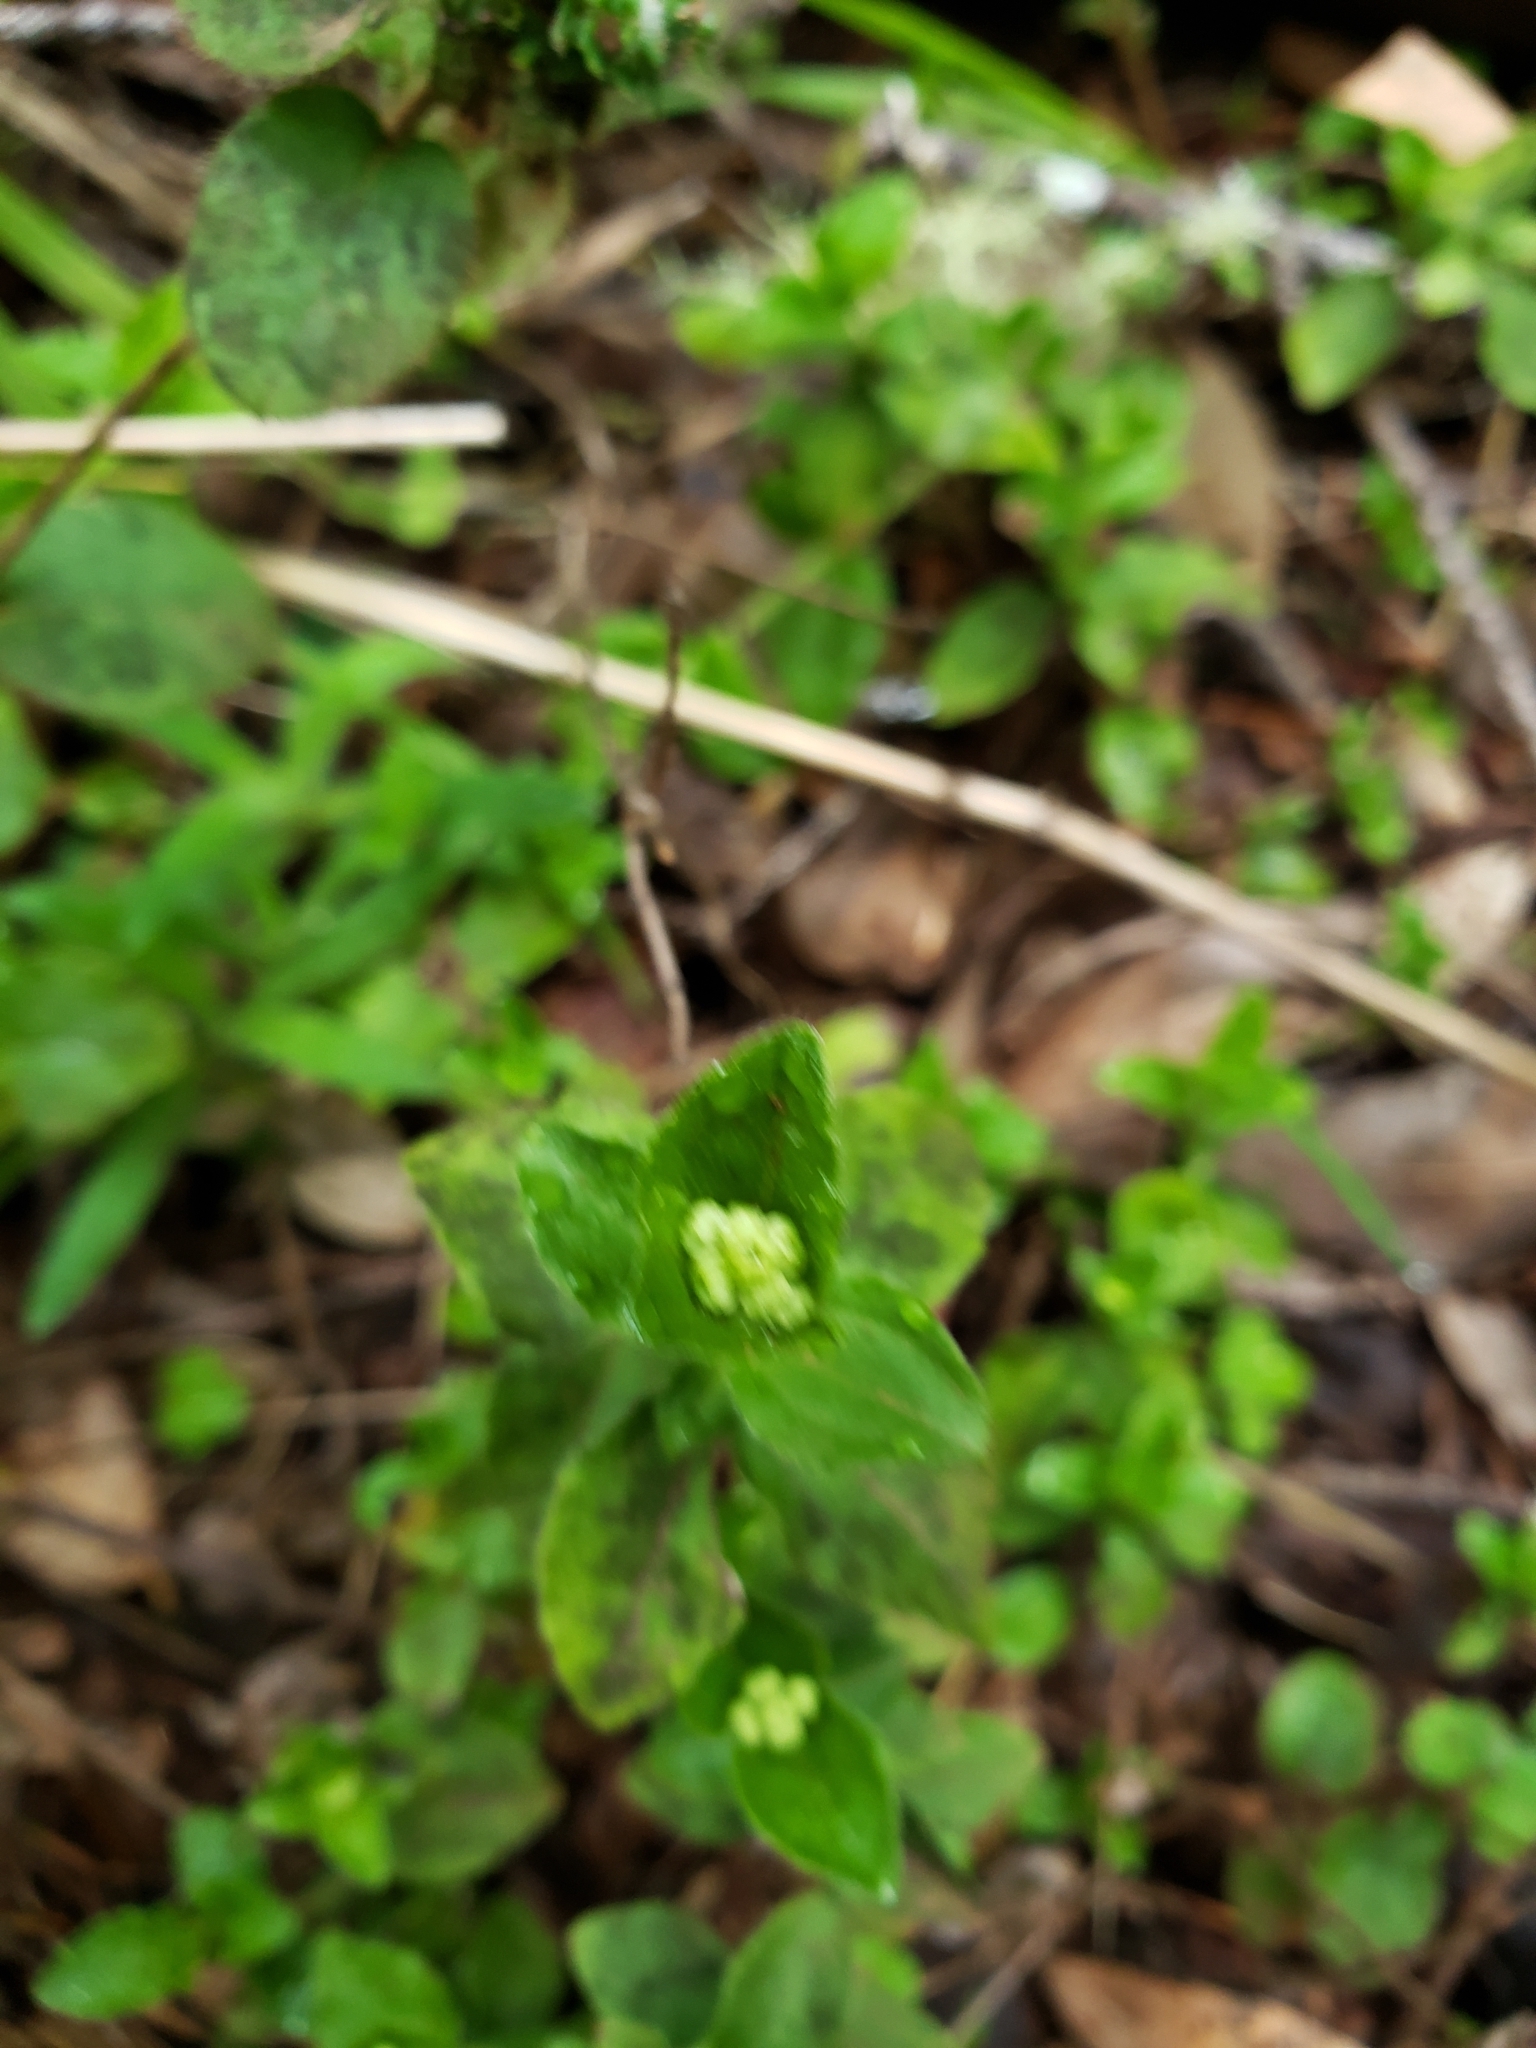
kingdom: Plantae
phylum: Tracheophyta
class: Magnoliopsida
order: Cornales
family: Hydrangeaceae
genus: Whipplea
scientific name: Whipplea modesta
